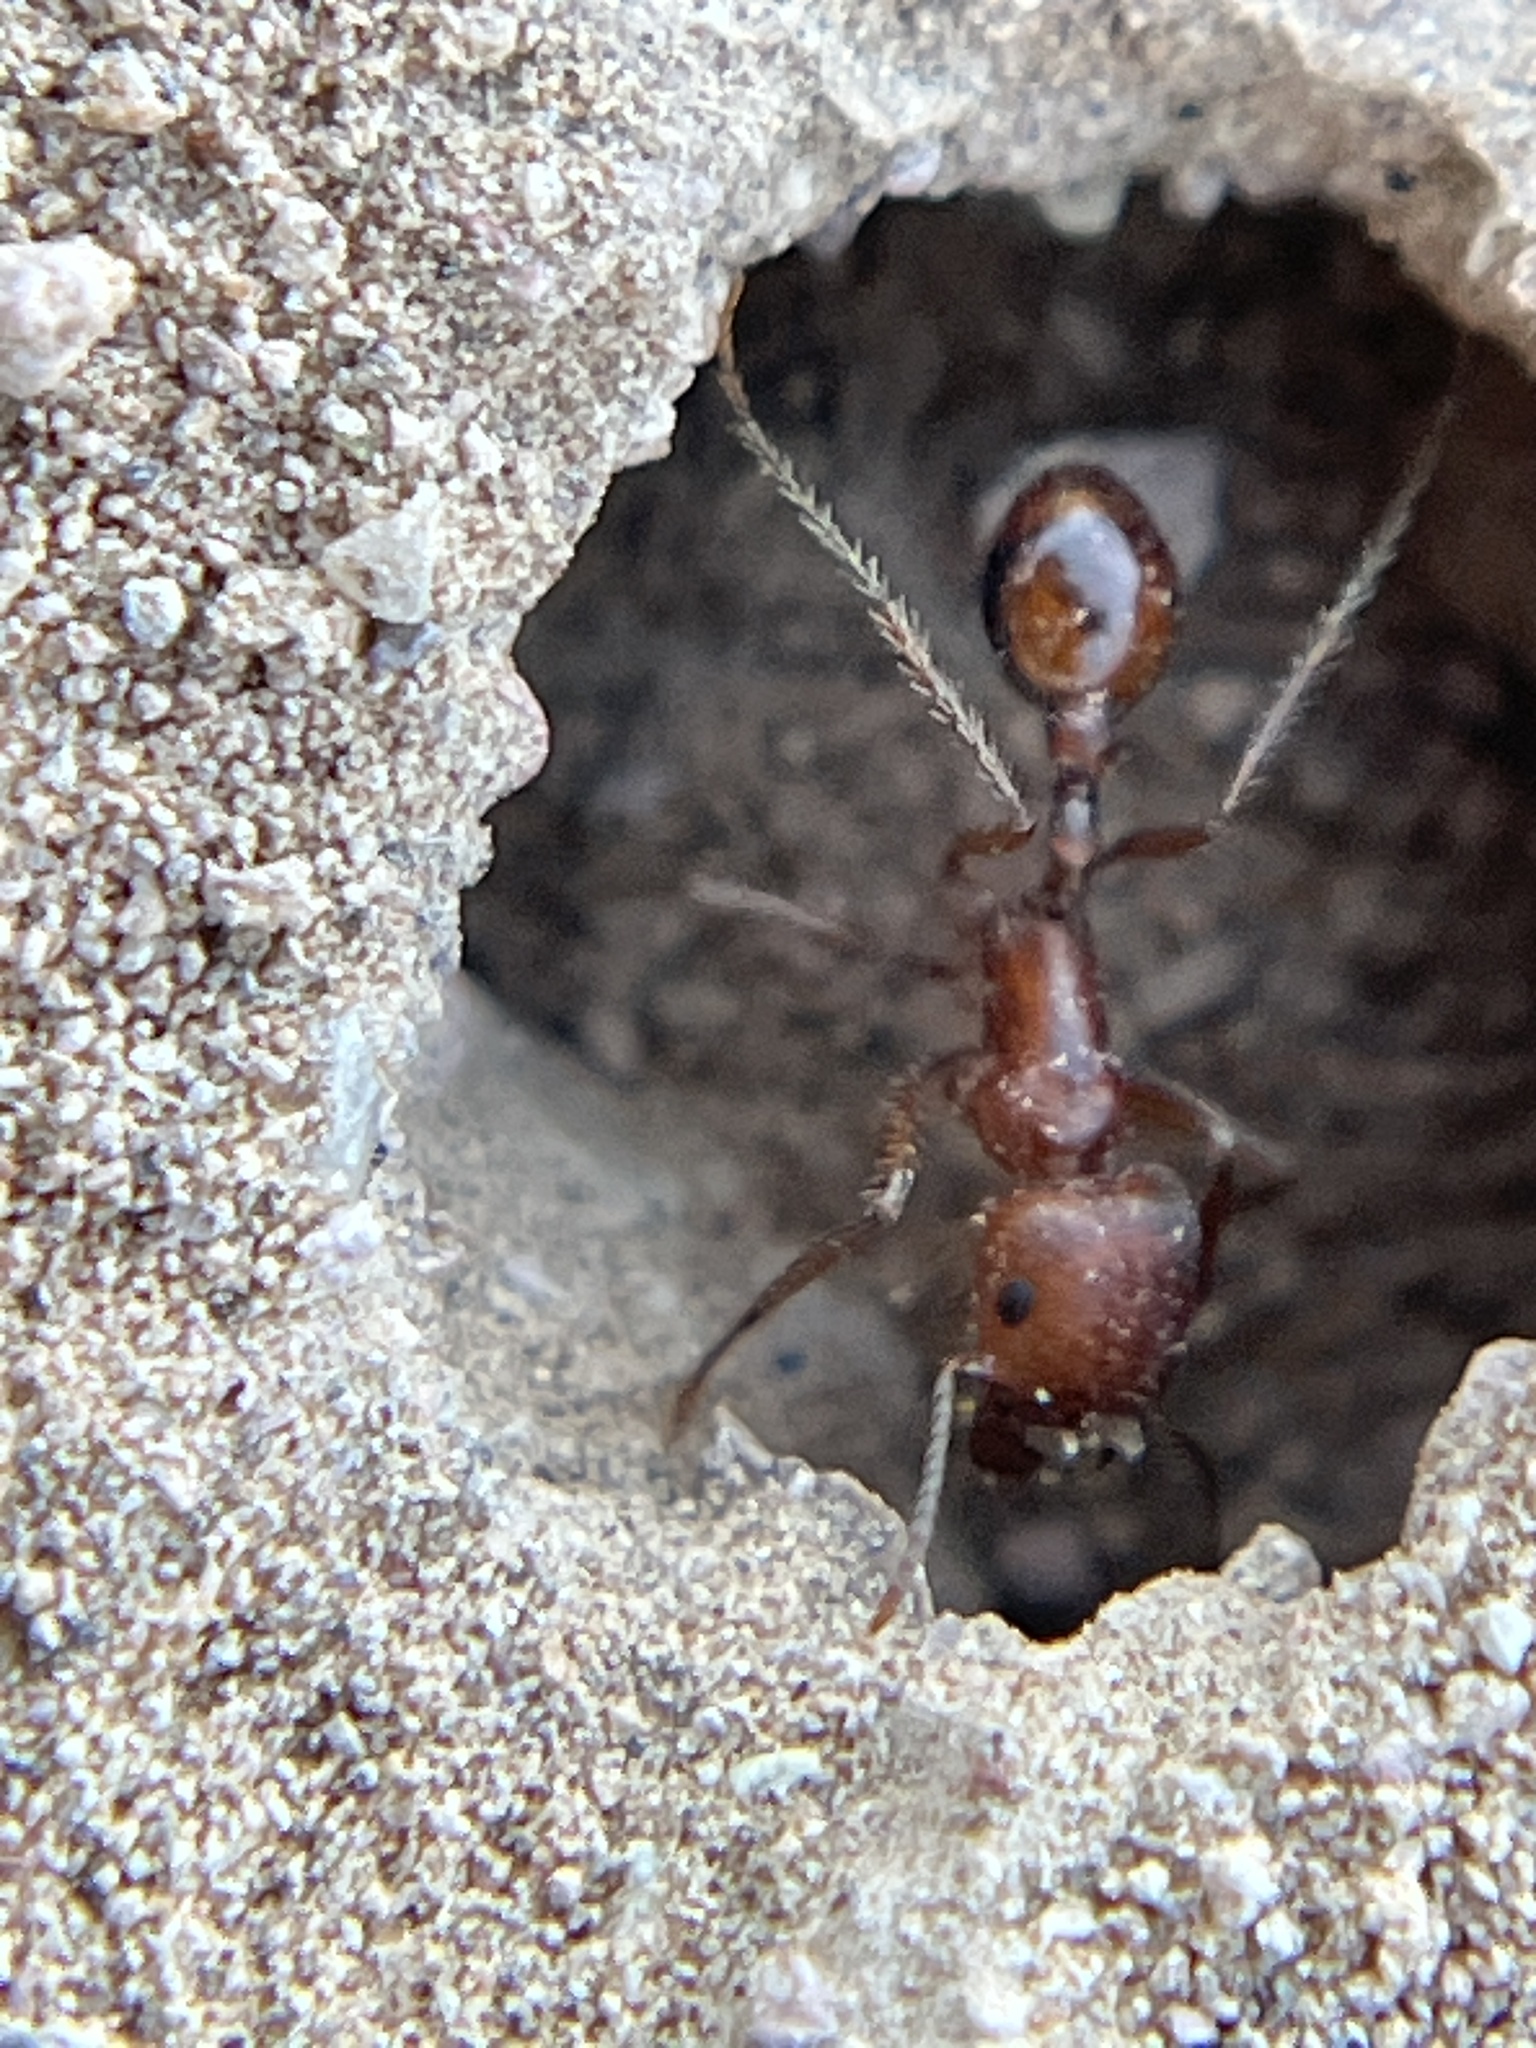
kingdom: Animalia
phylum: Arthropoda
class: Insecta
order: Hymenoptera
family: Formicidae
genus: Pogonomyrmex
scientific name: Pogonomyrmex californicus
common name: California harvester ant
